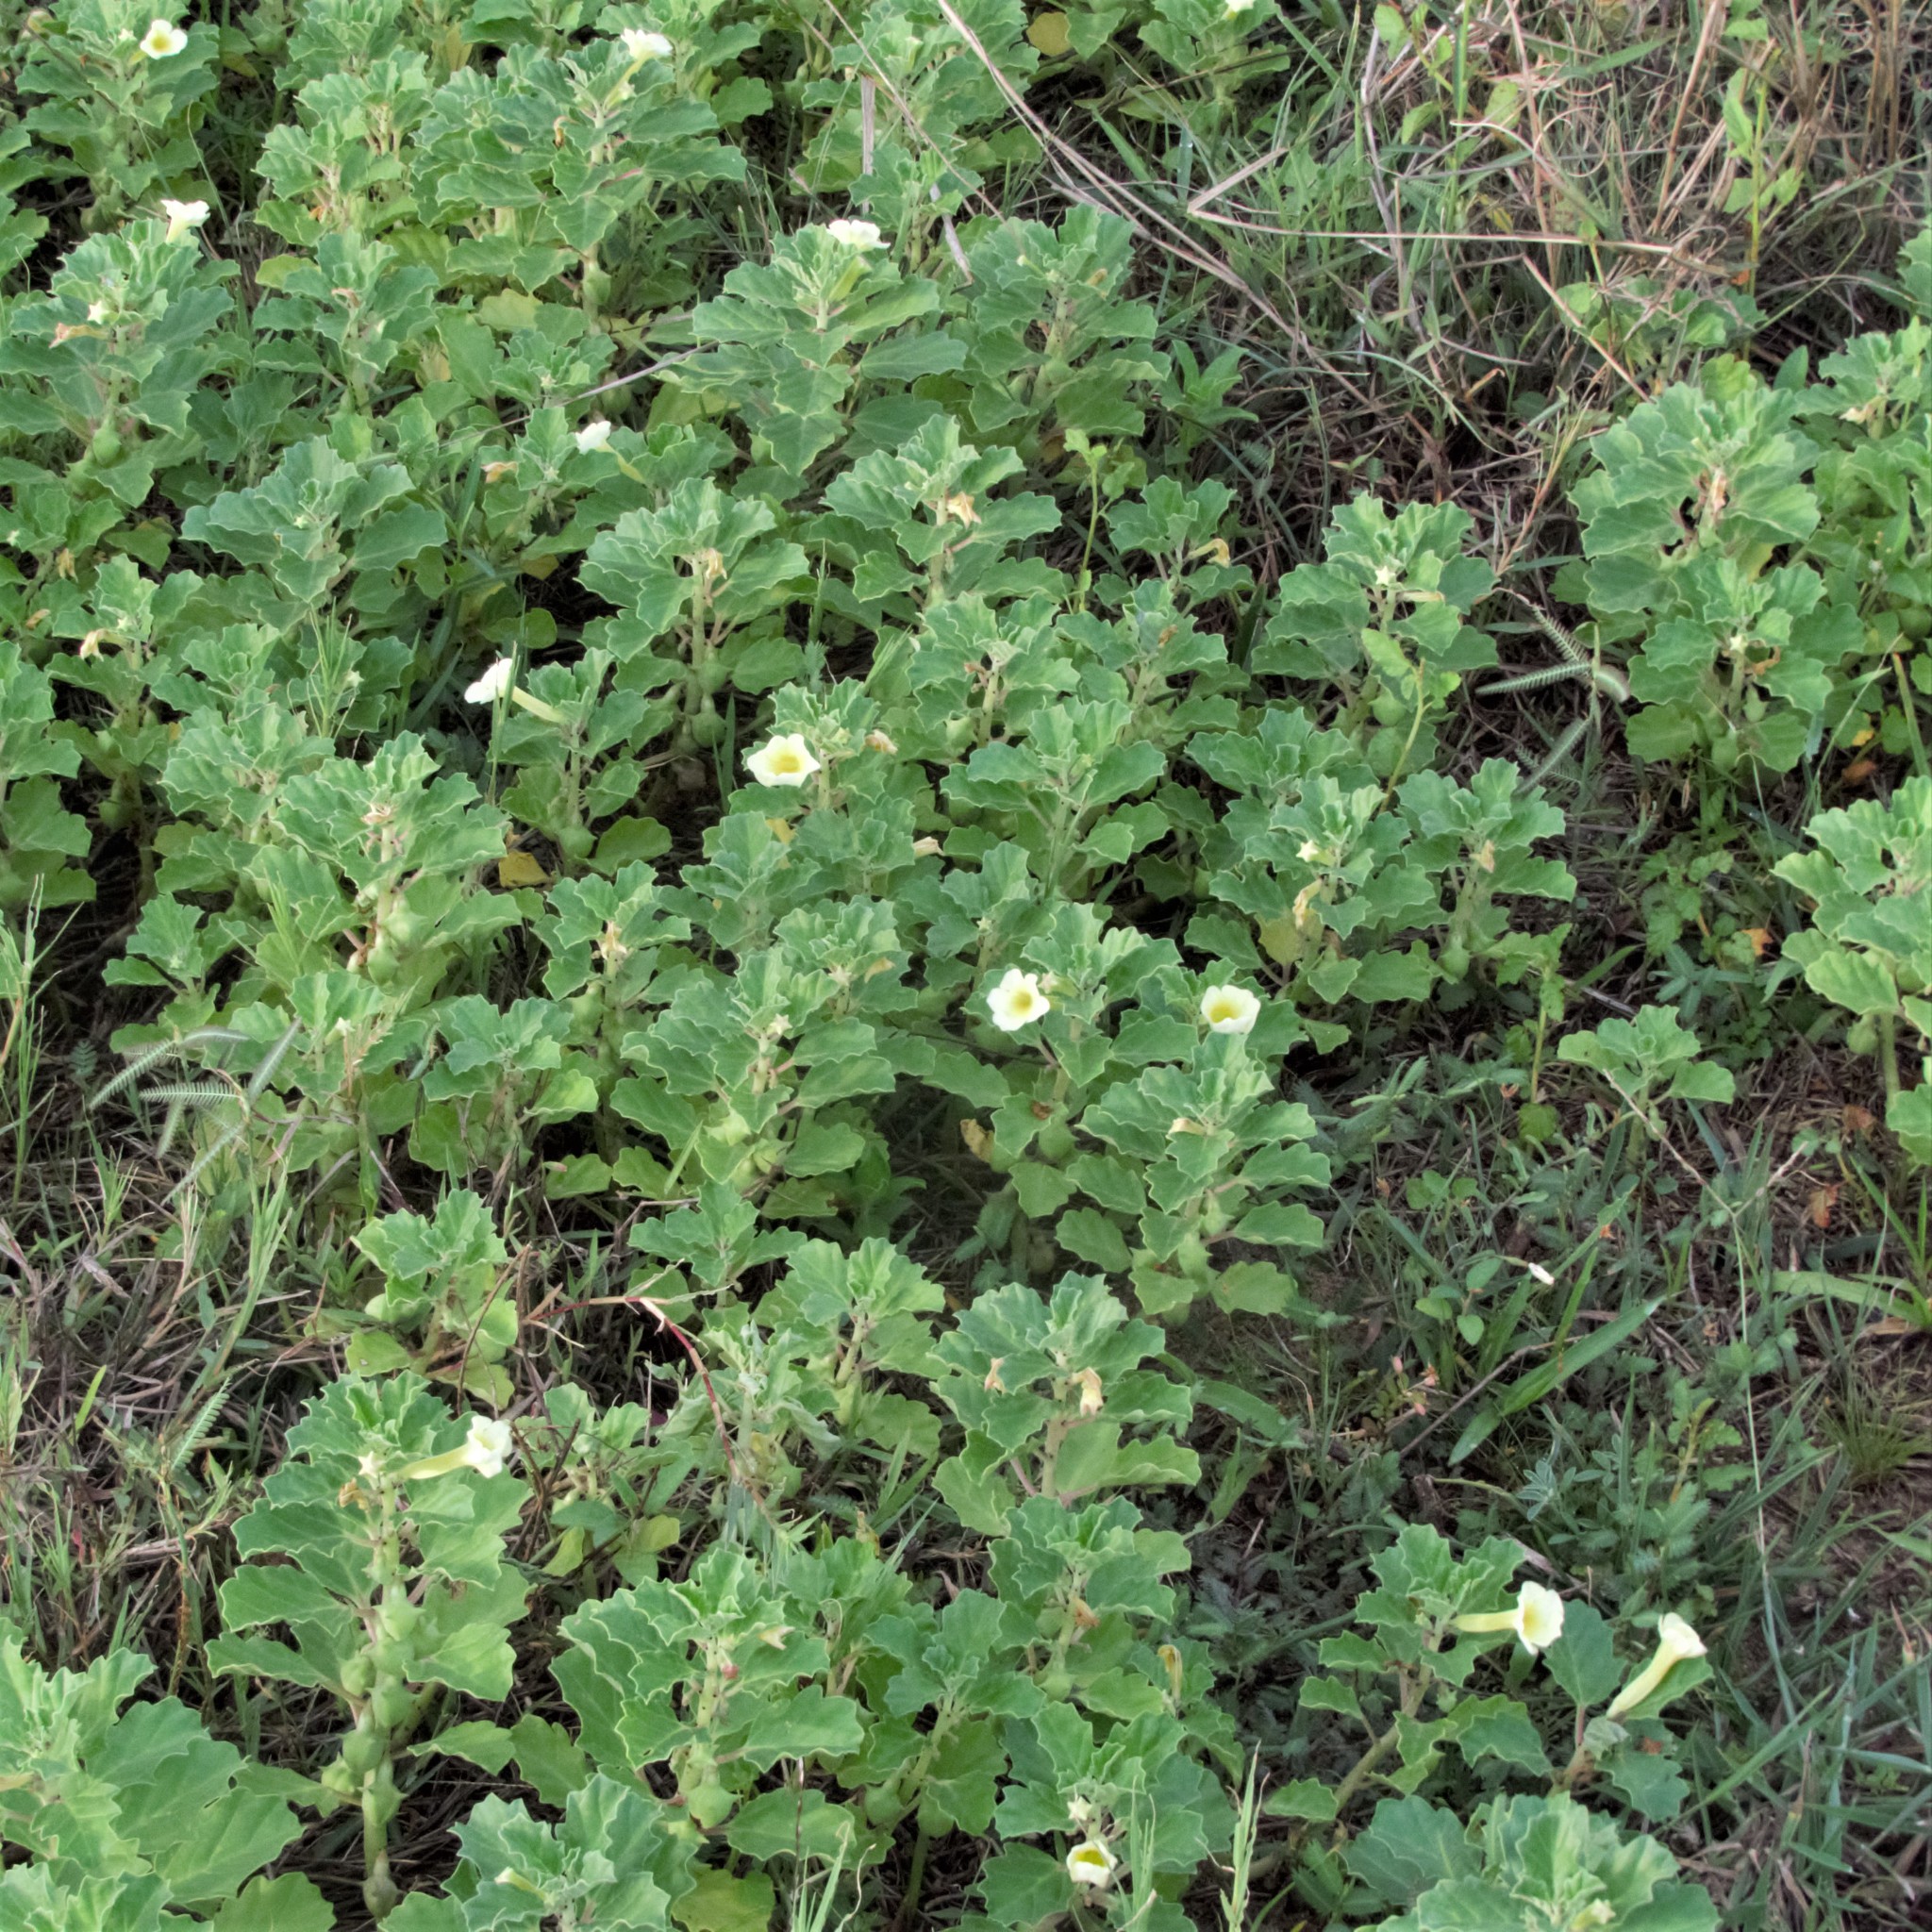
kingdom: Plantae
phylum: Tracheophyta
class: Magnoliopsida
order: Lamiales
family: Pedaliaceae
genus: Pedalium
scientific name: Pedalium murex
